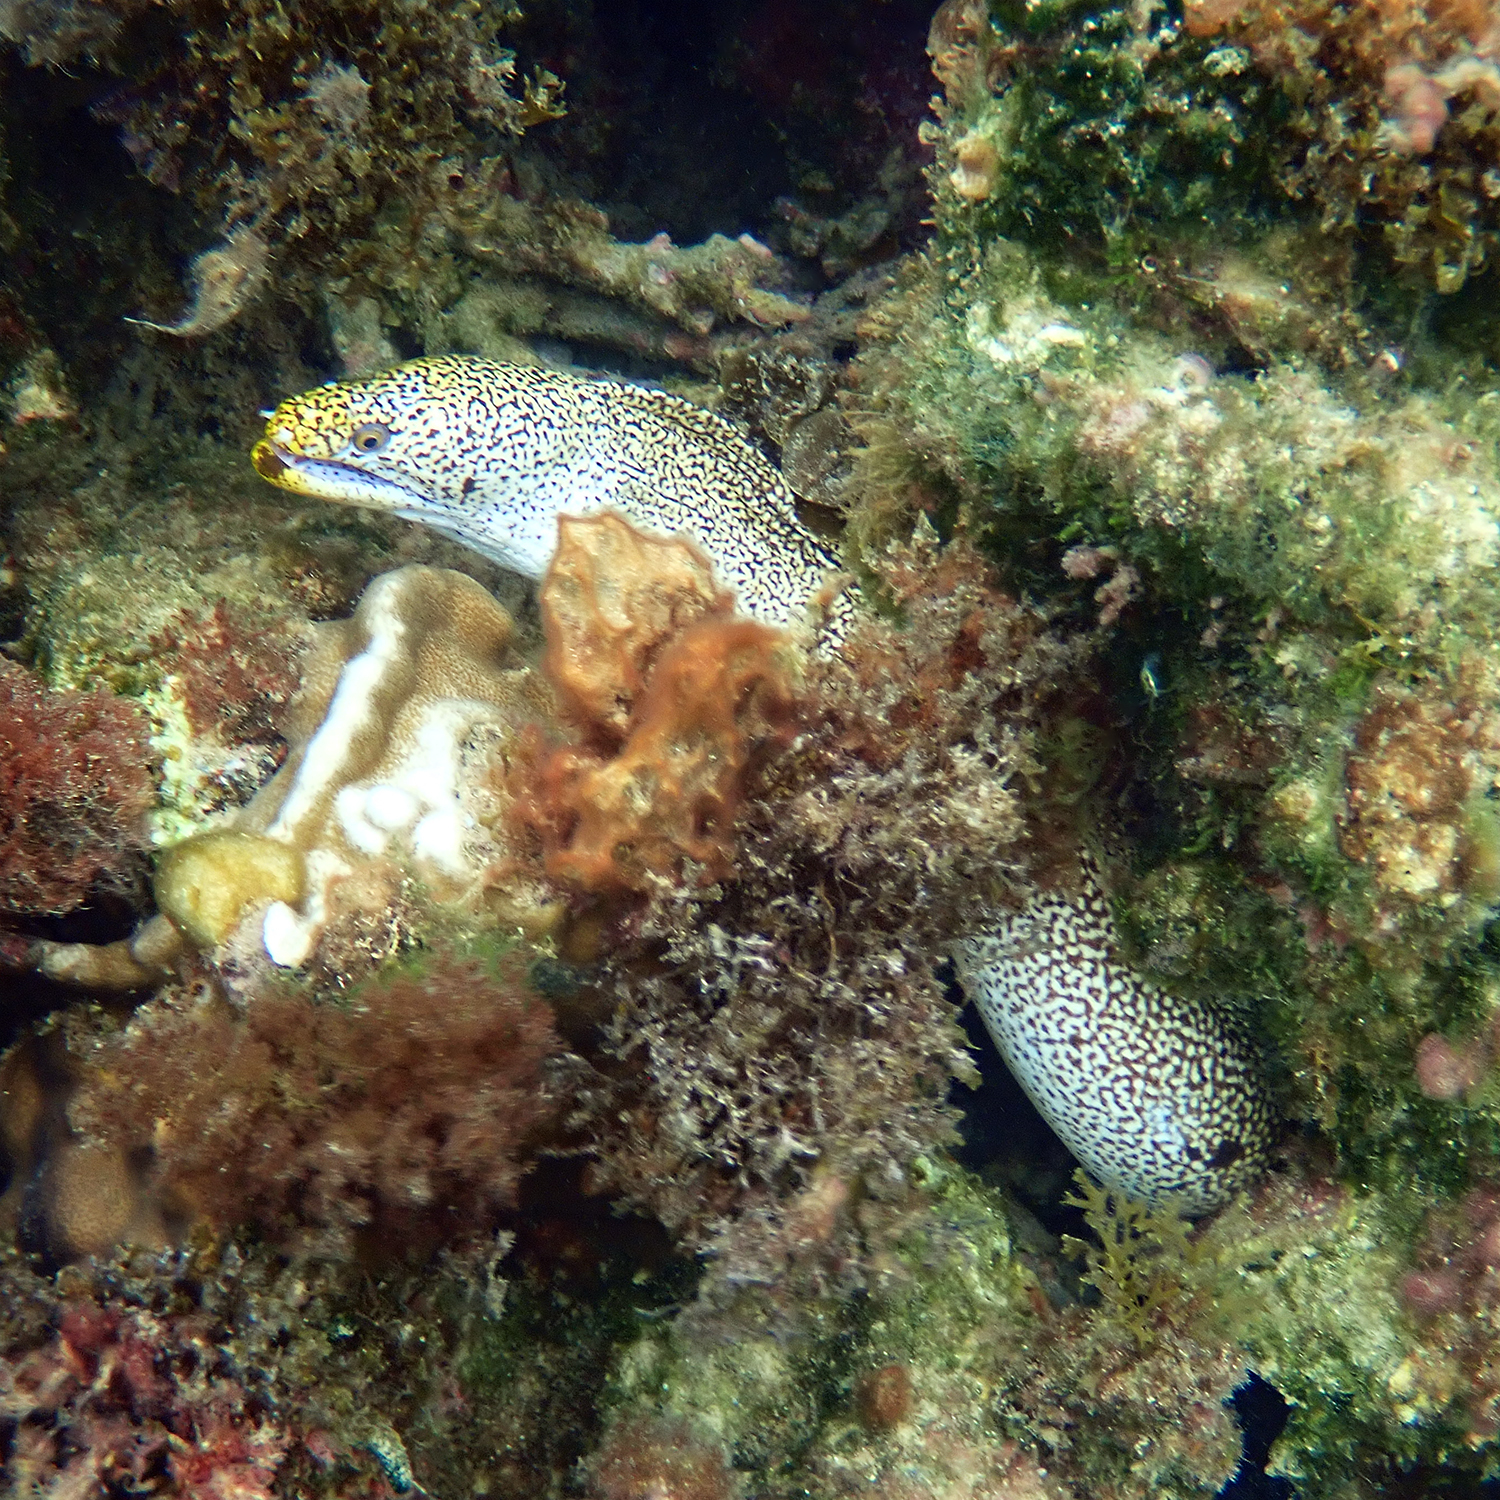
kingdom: Animalia
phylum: Chordata
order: Anguilliformes
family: Muraenidae
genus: Gymnothorax
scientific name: Gymnothorax eurostus
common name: Stout moray
